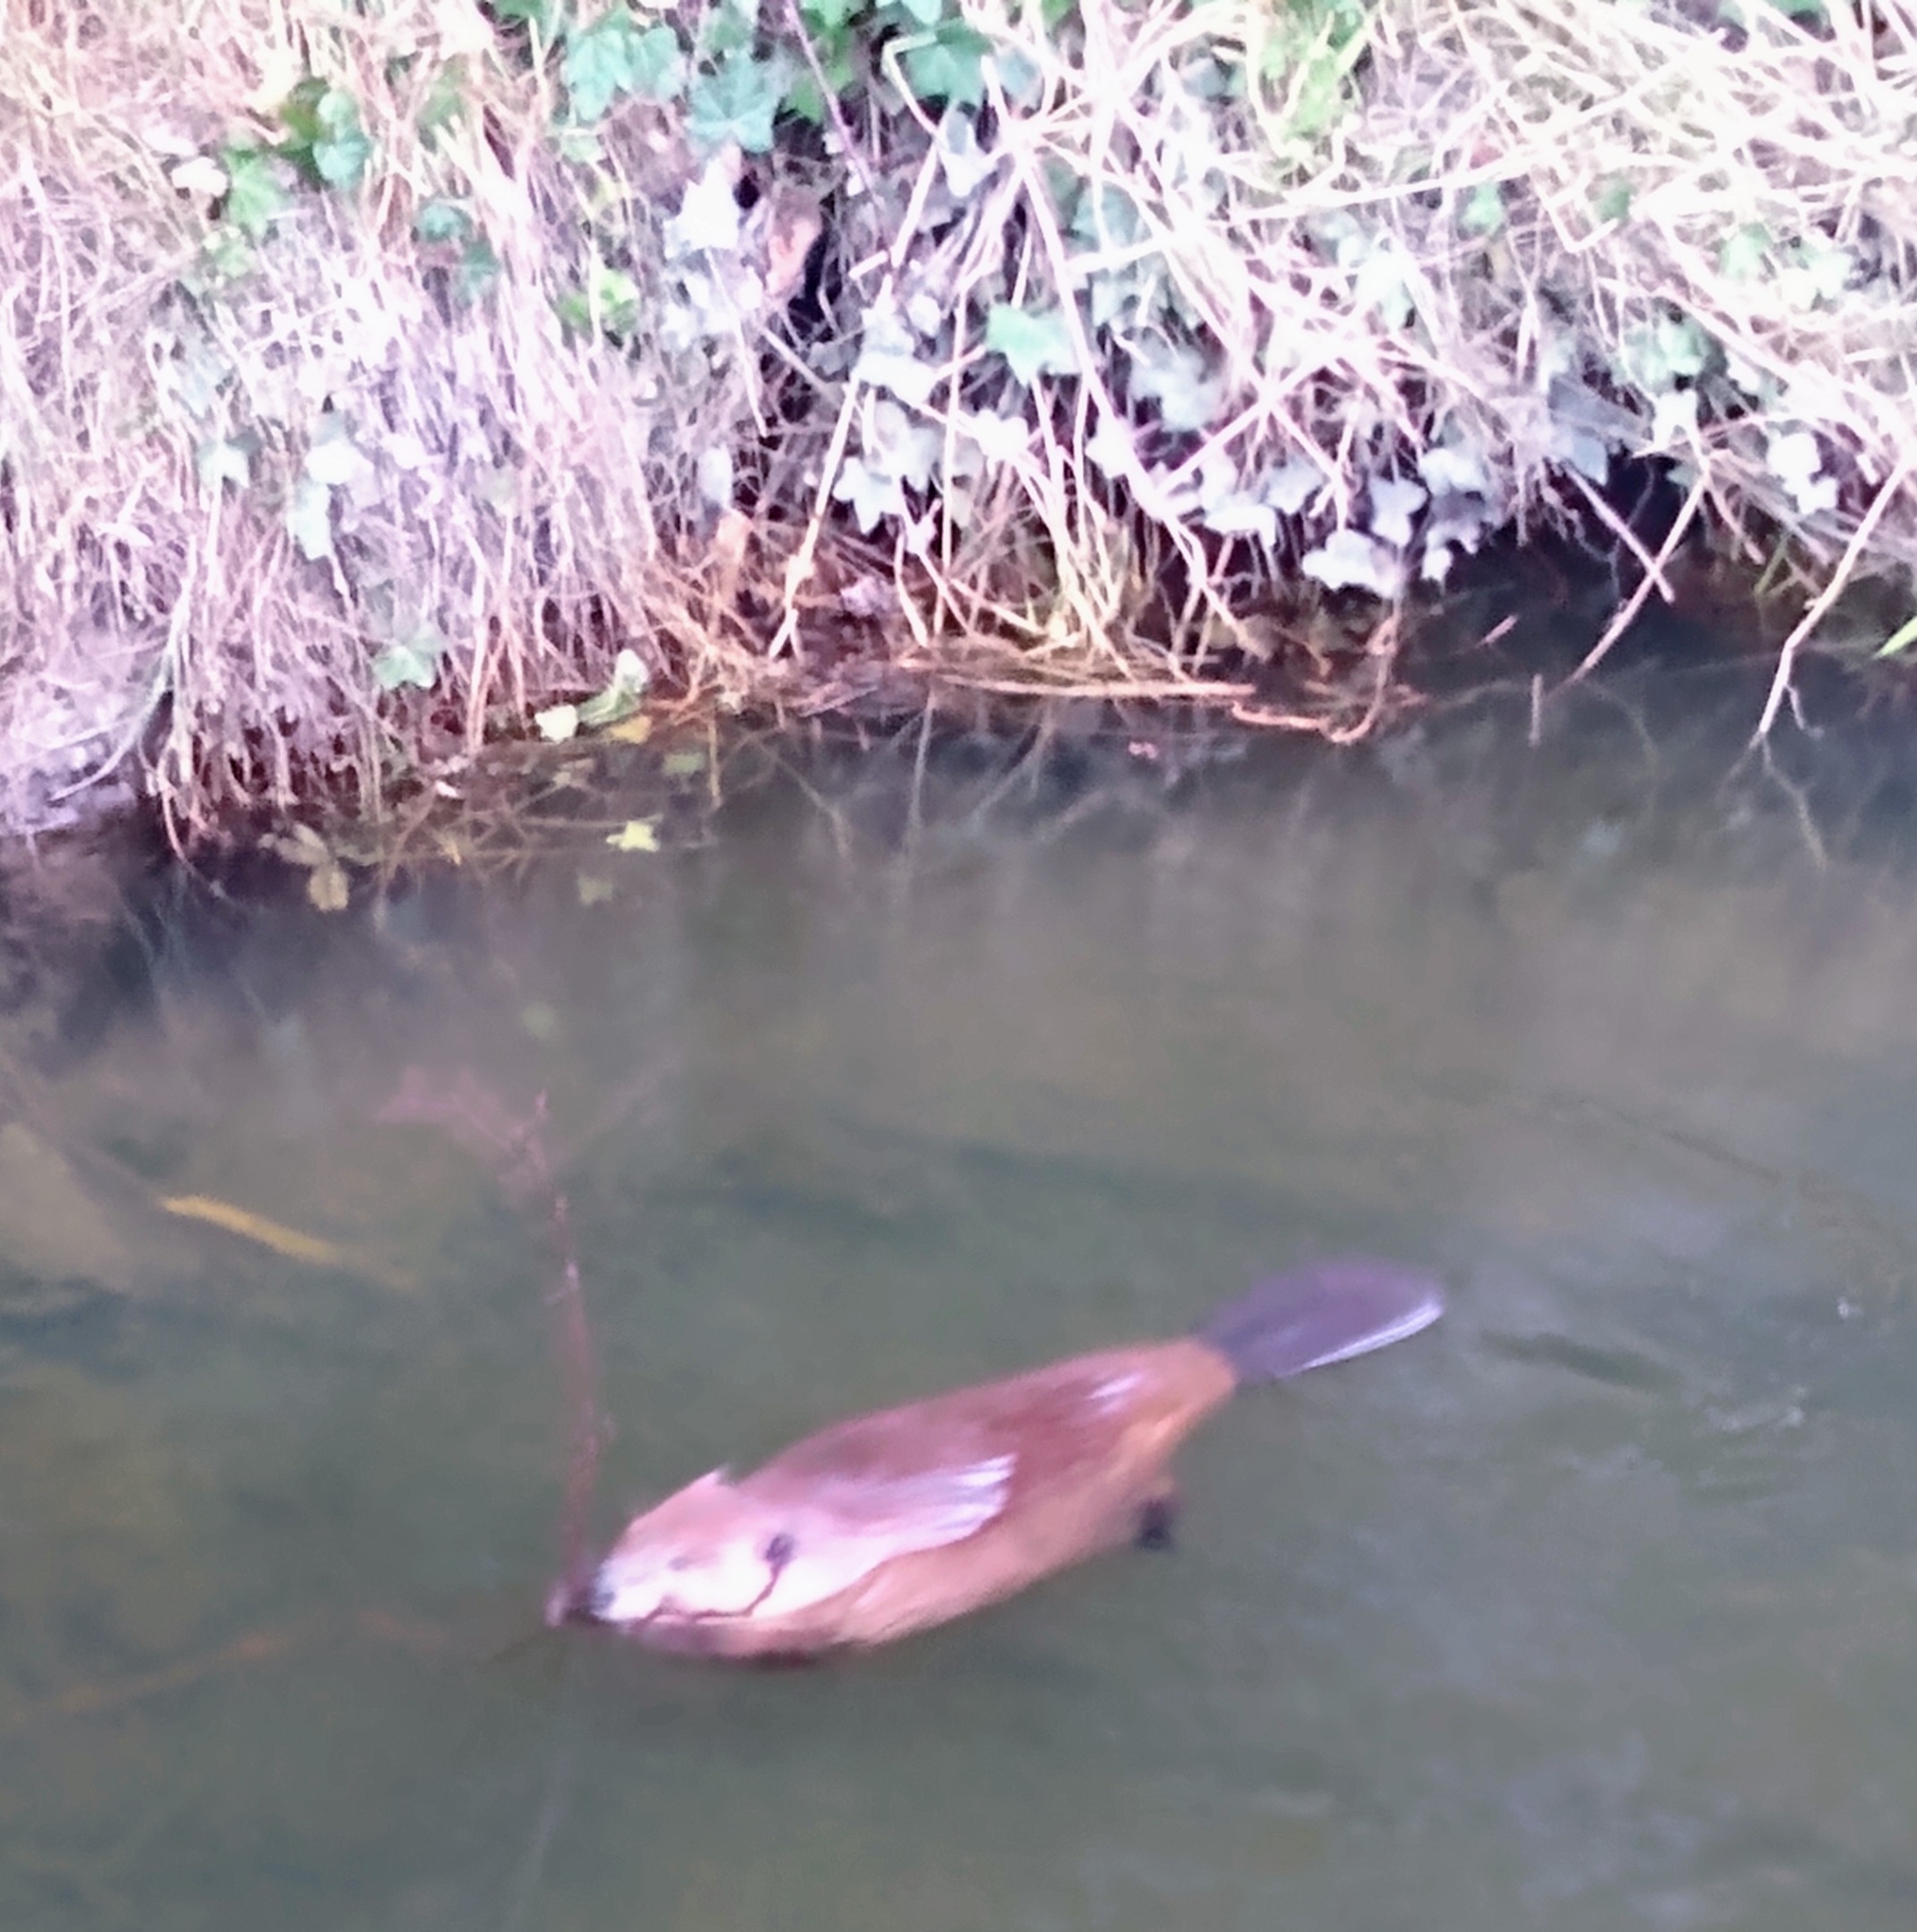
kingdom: Animalia
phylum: Chordata
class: Mammalia
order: Rodentia
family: Castoridae
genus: Castor
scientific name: Castor canadensis
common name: American beaver
